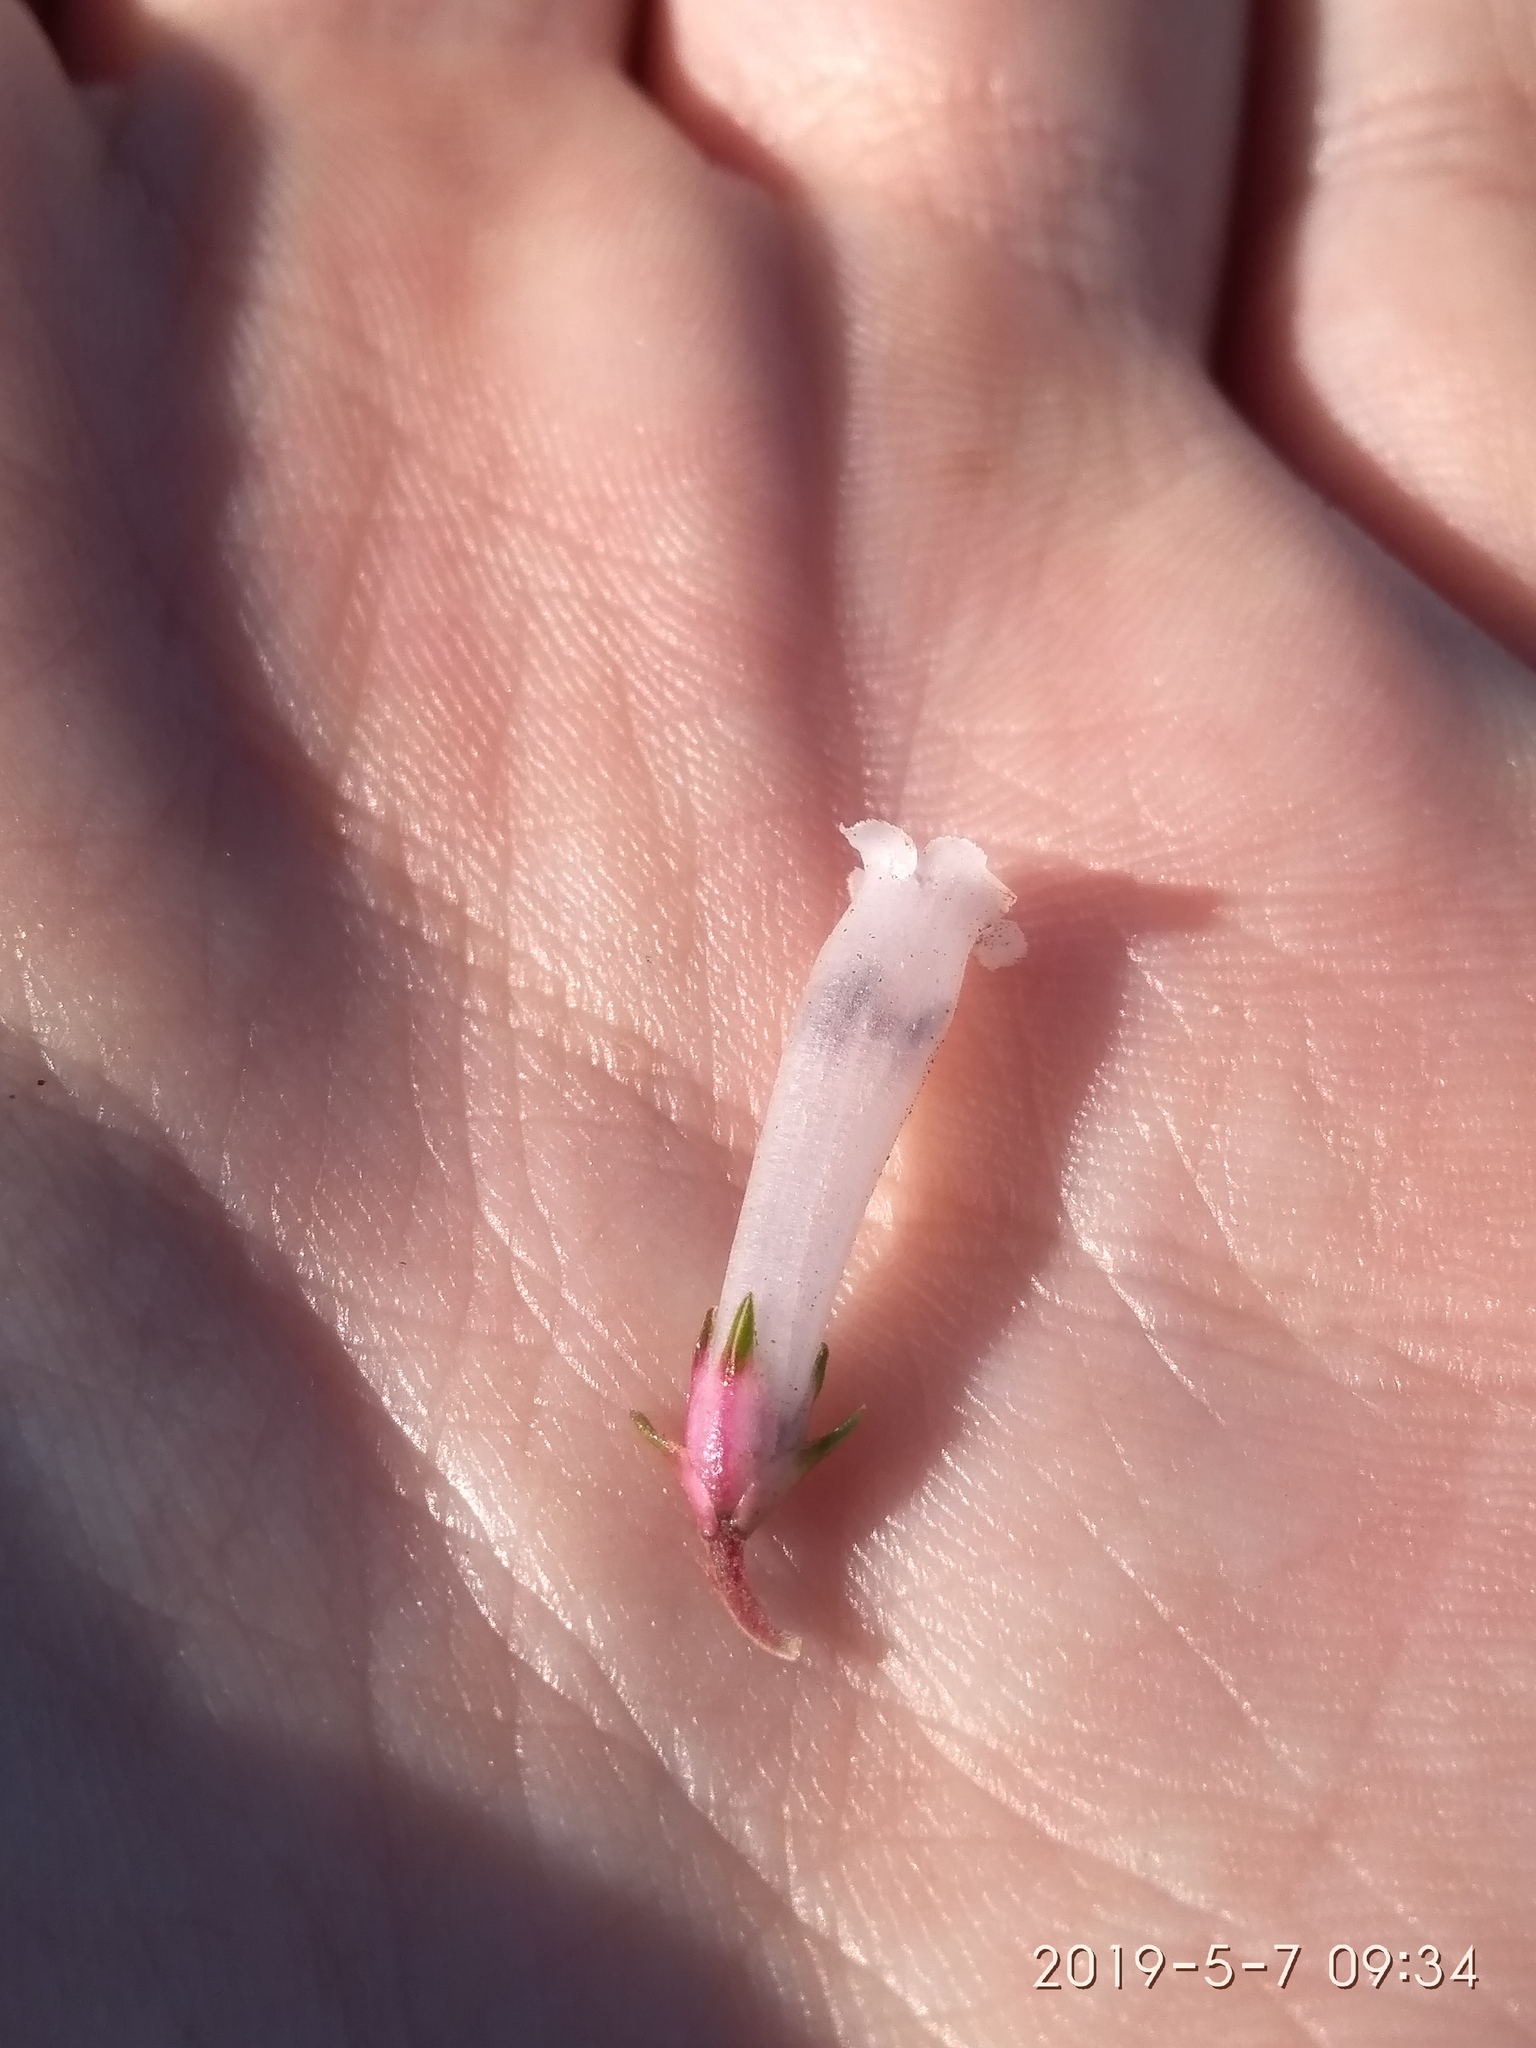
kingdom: Plantae
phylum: Tracheophyta
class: Magnoliopsida
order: Ericales
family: Ericaceae
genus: Erica
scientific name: Erica regia
